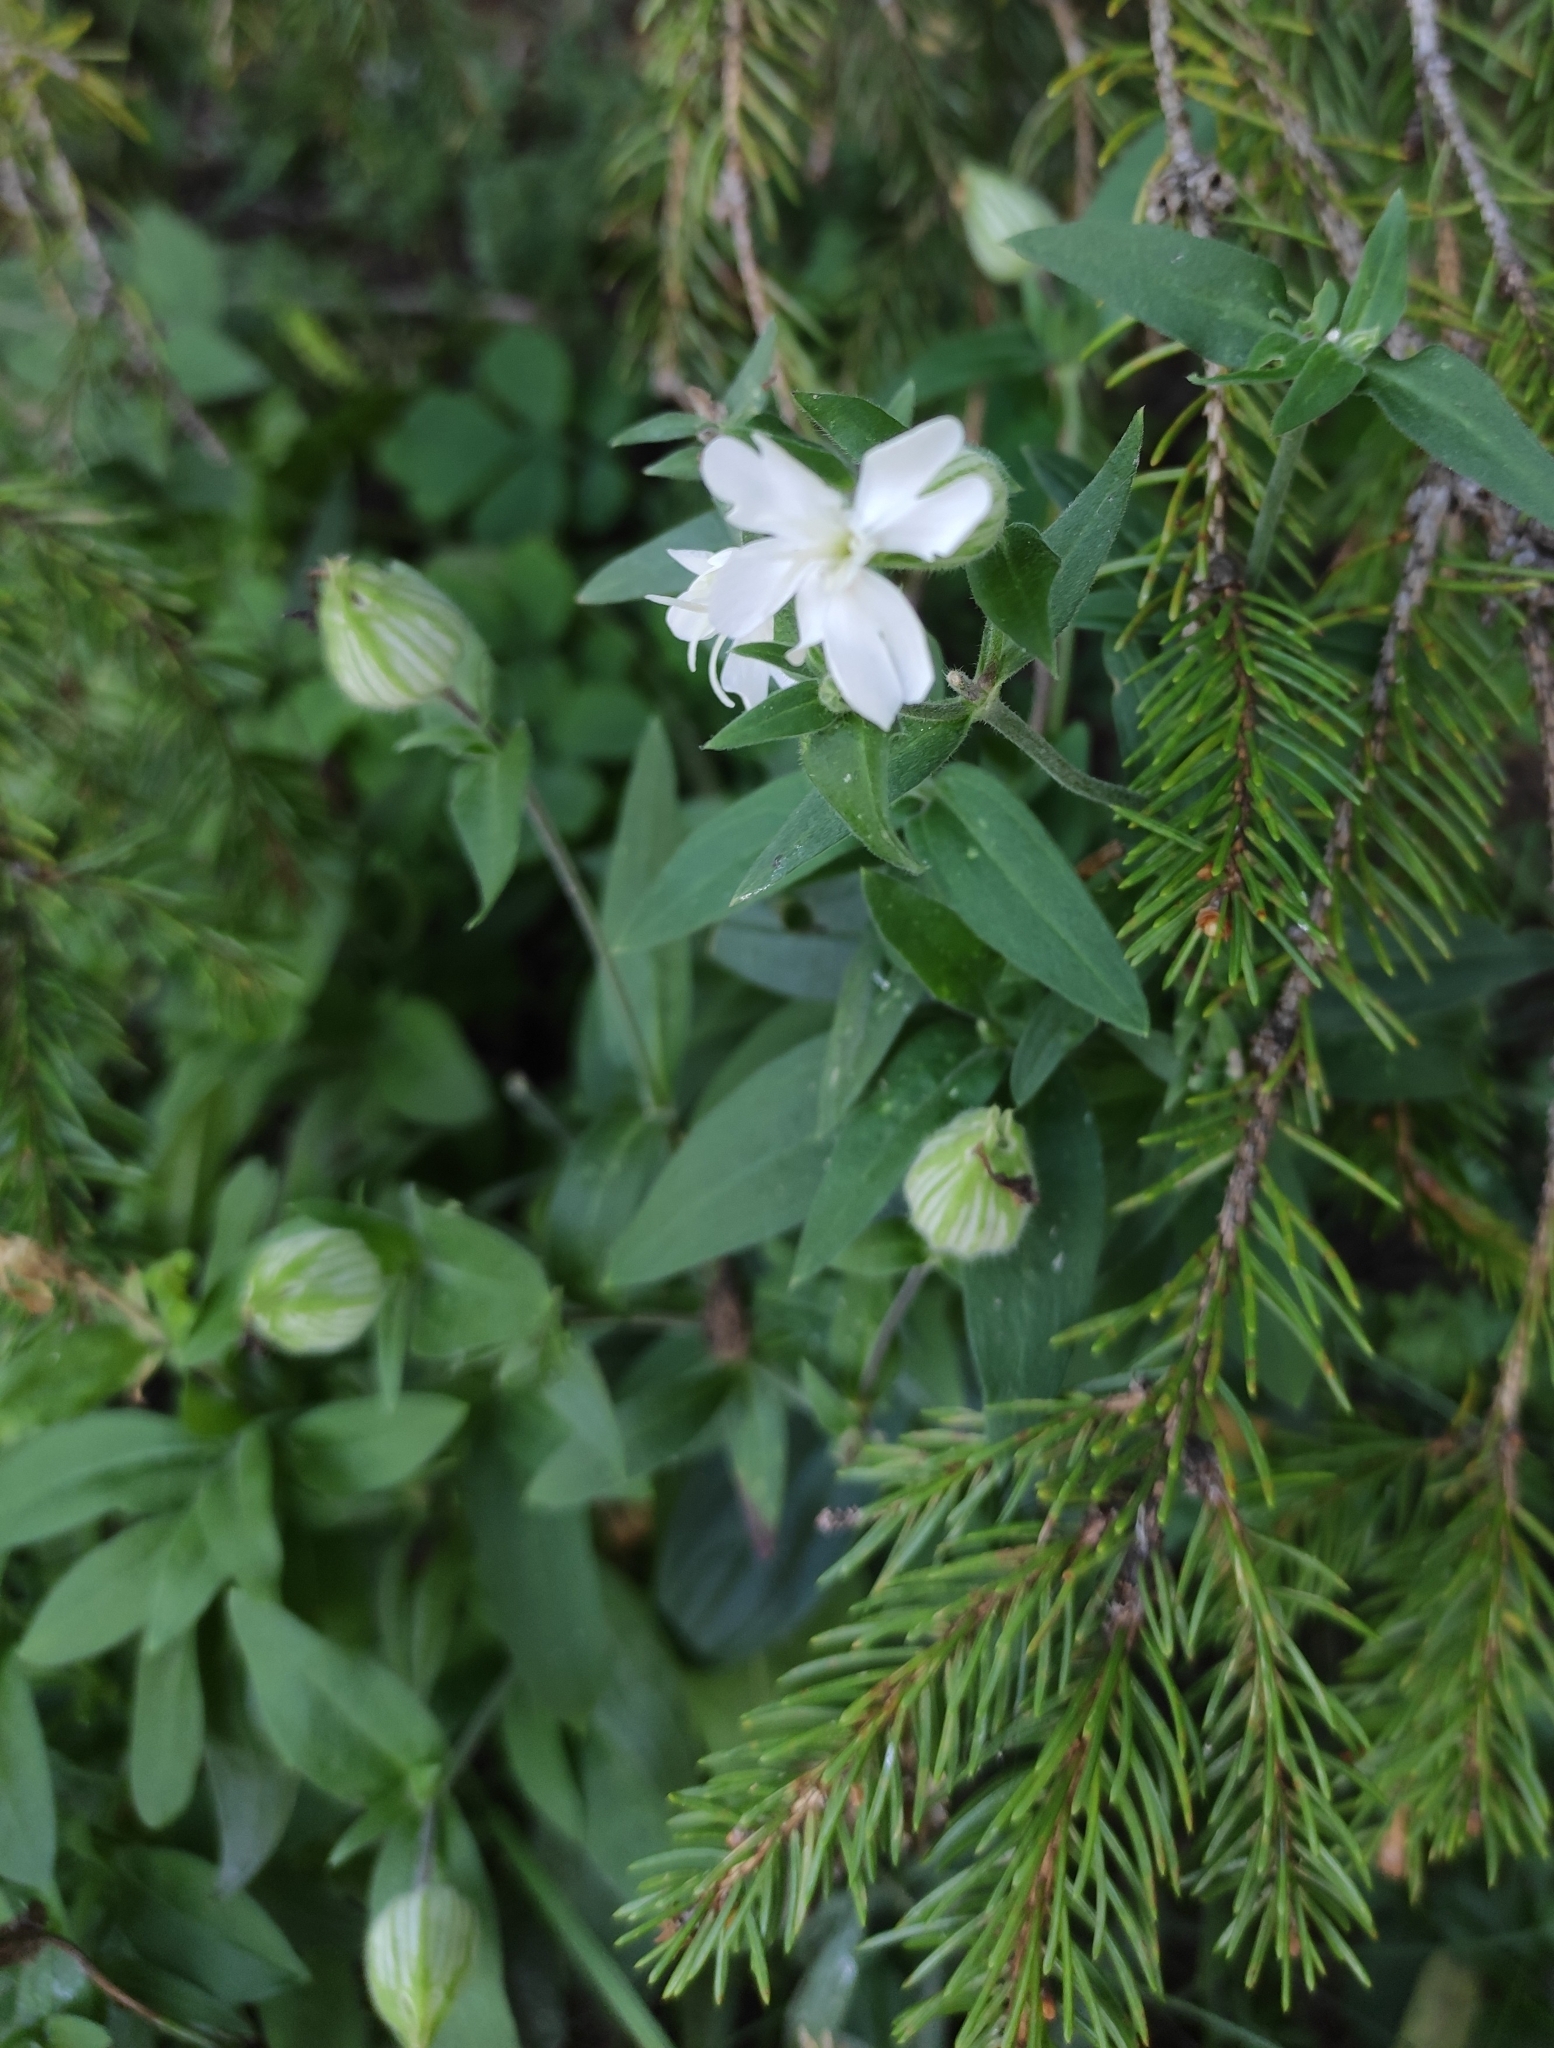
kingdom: Plantae
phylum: Tracheophyta
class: Magnoliopsida
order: Caryophyllales
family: Caryophyllaceae
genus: Silene
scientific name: Silene latifolia
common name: White campion
